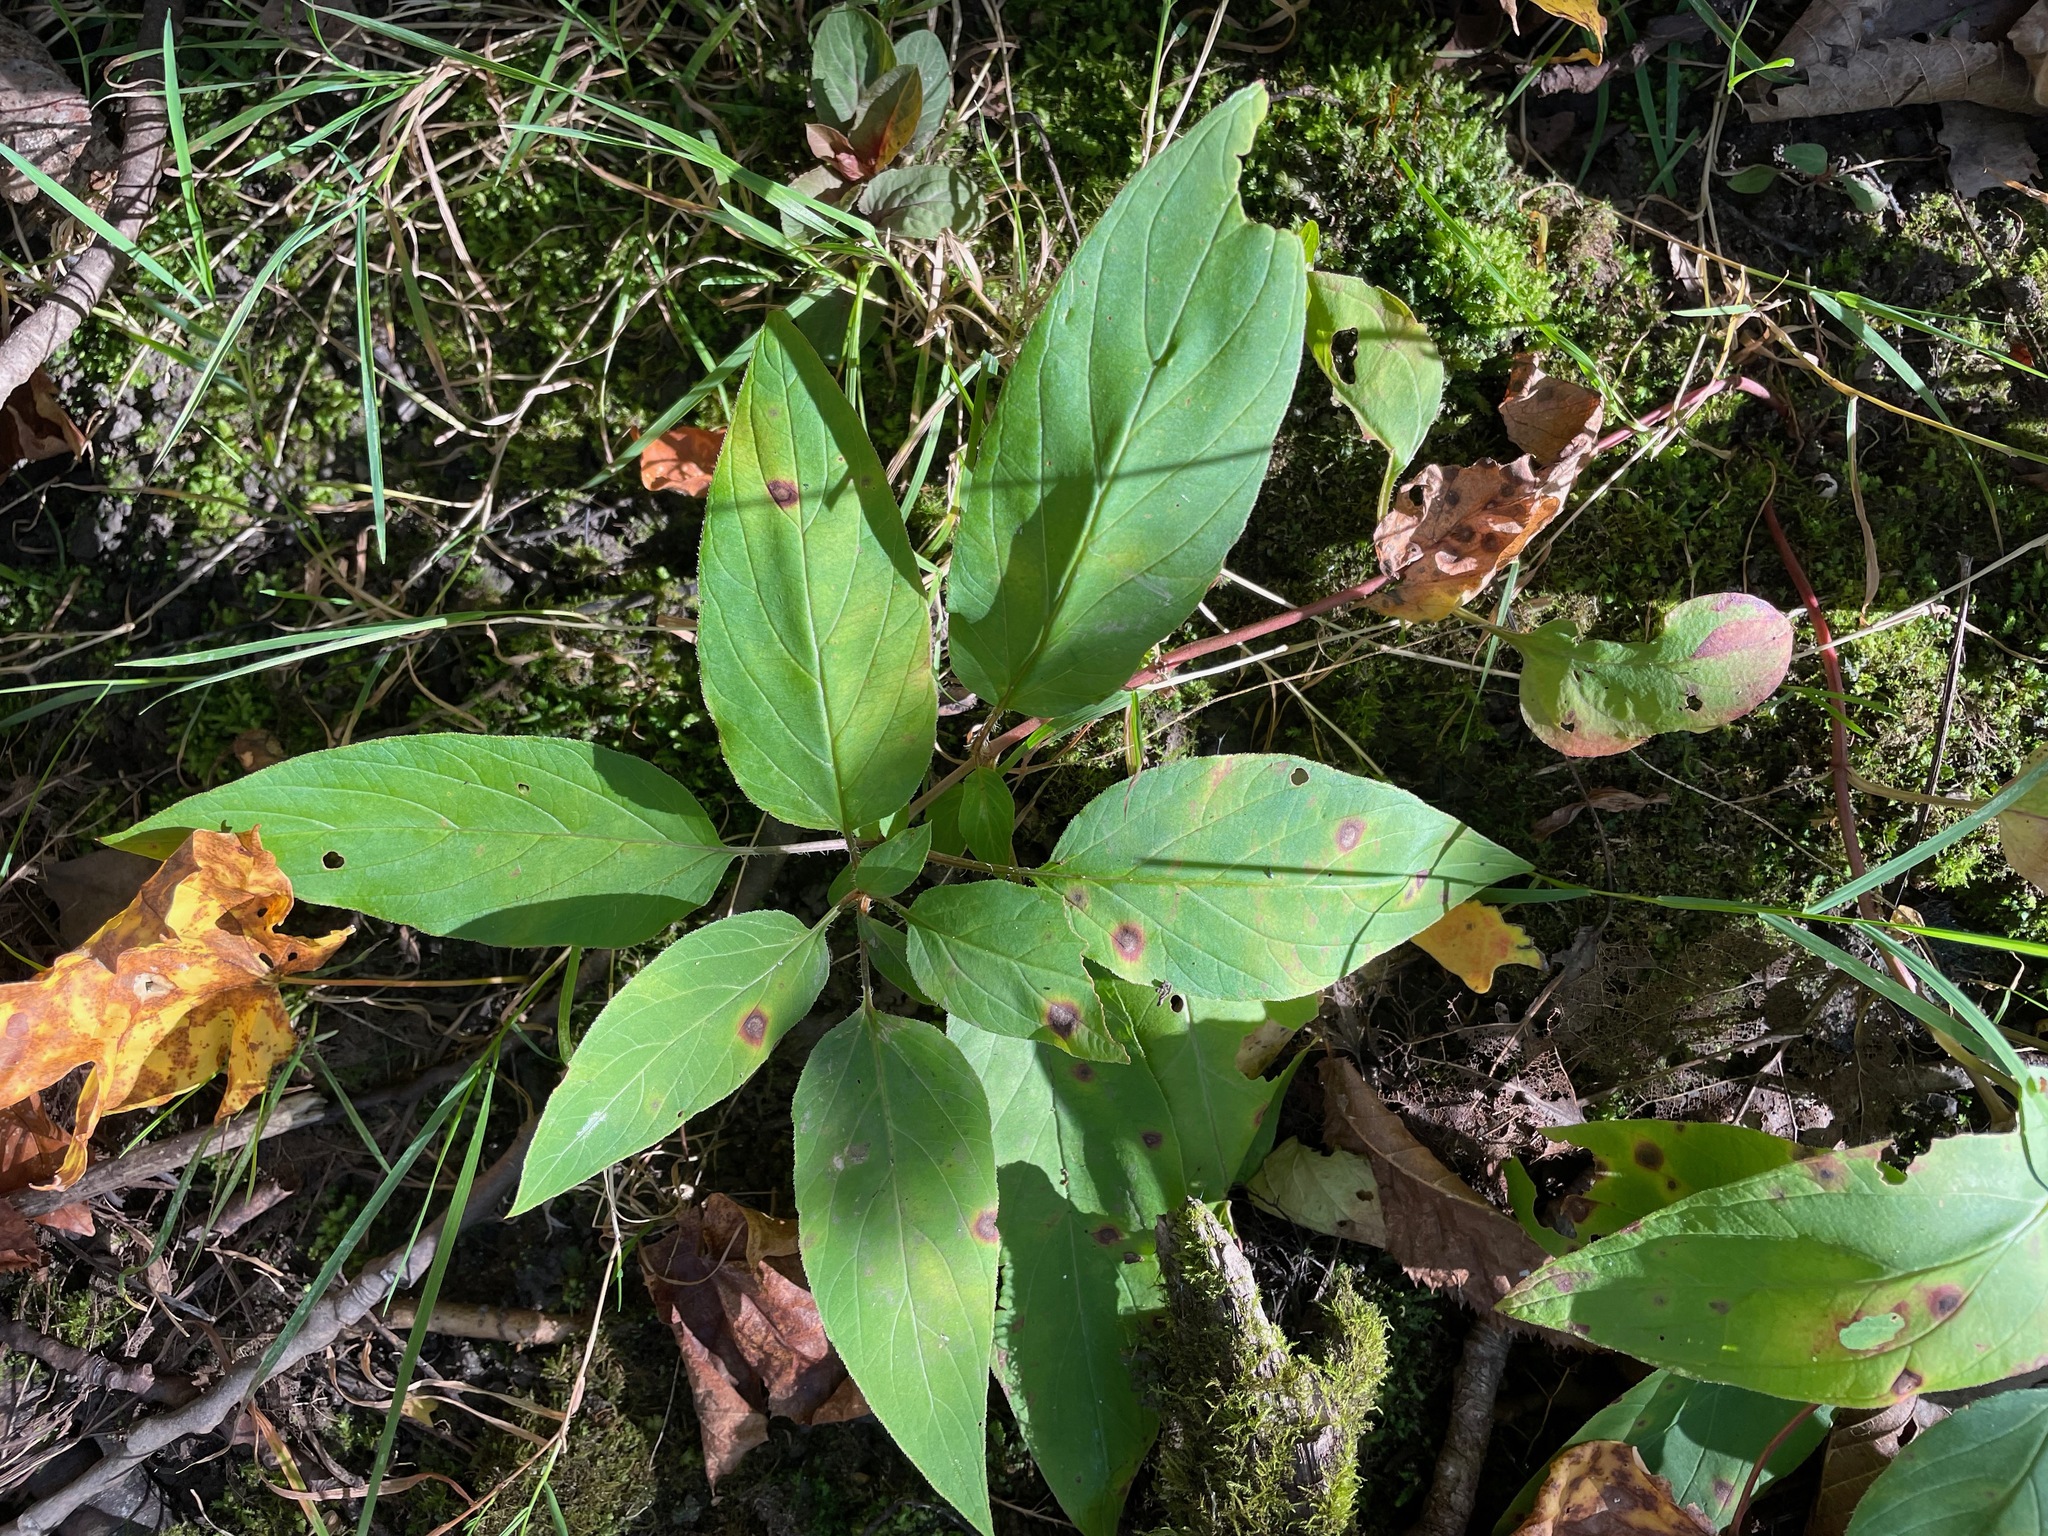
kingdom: Plantae
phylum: Tracheophyta
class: Magnoliopsida
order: Ericales
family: Primulaceae
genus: Lysimachia
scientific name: Lysimachia ciliata
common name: Fringed loosestrife
